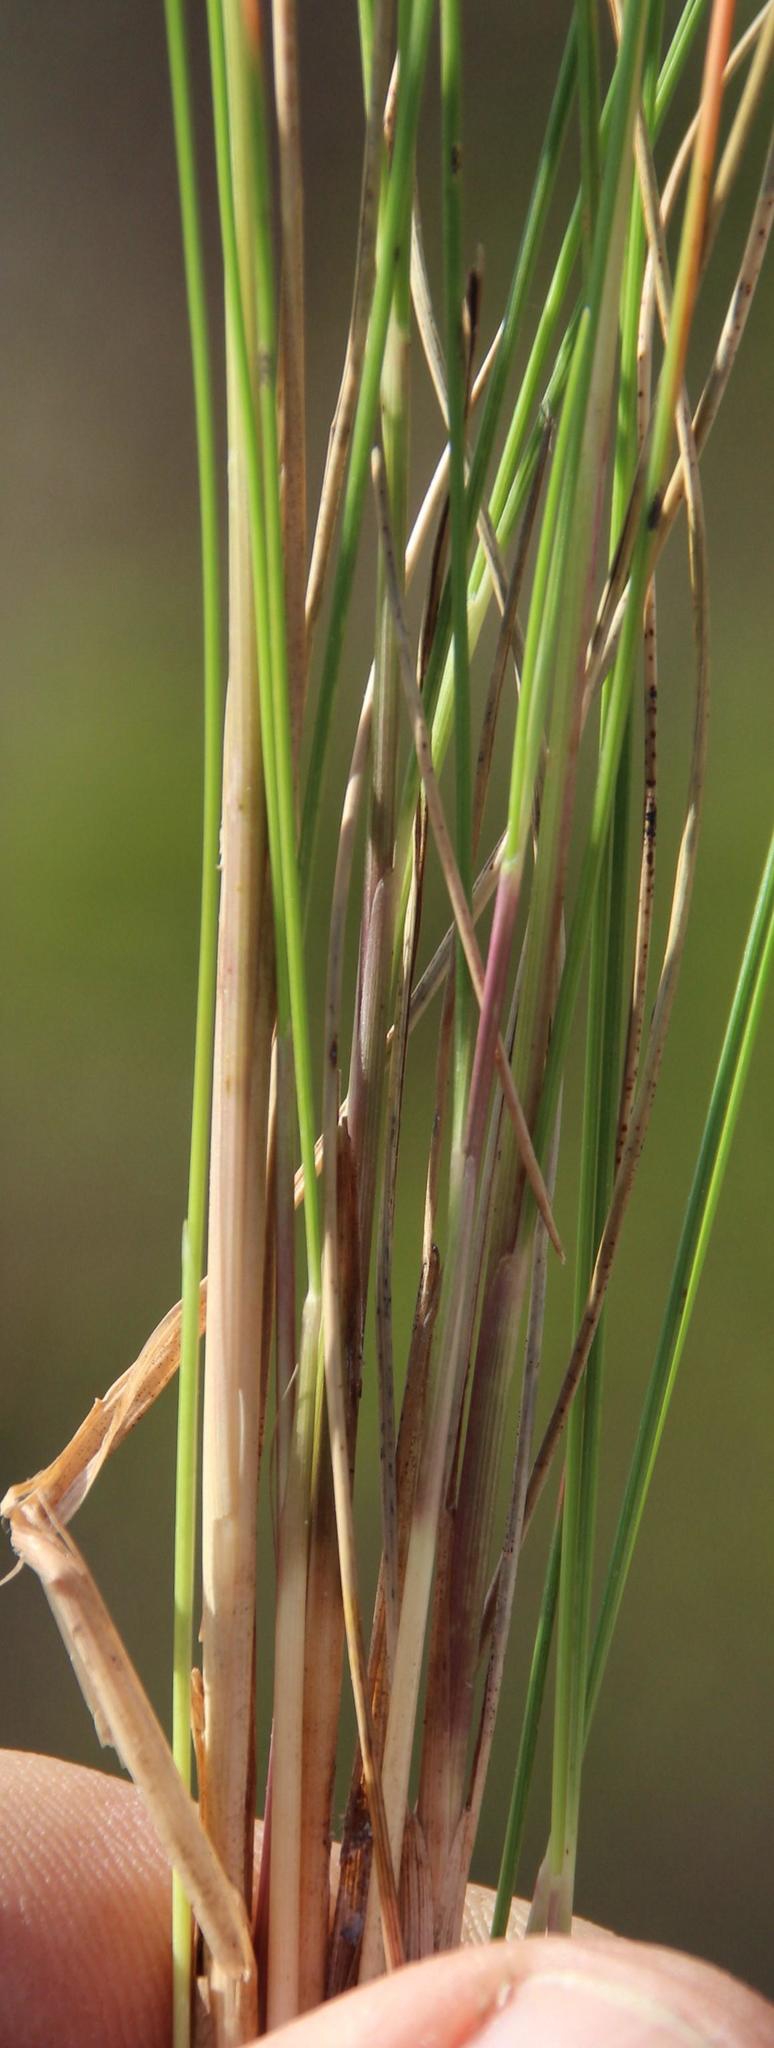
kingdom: Plantae
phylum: Tracheophyta
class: Liliopsida
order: Poales
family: Poaceae
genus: Stipagrostis
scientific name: Stipagrostis zeyheri
